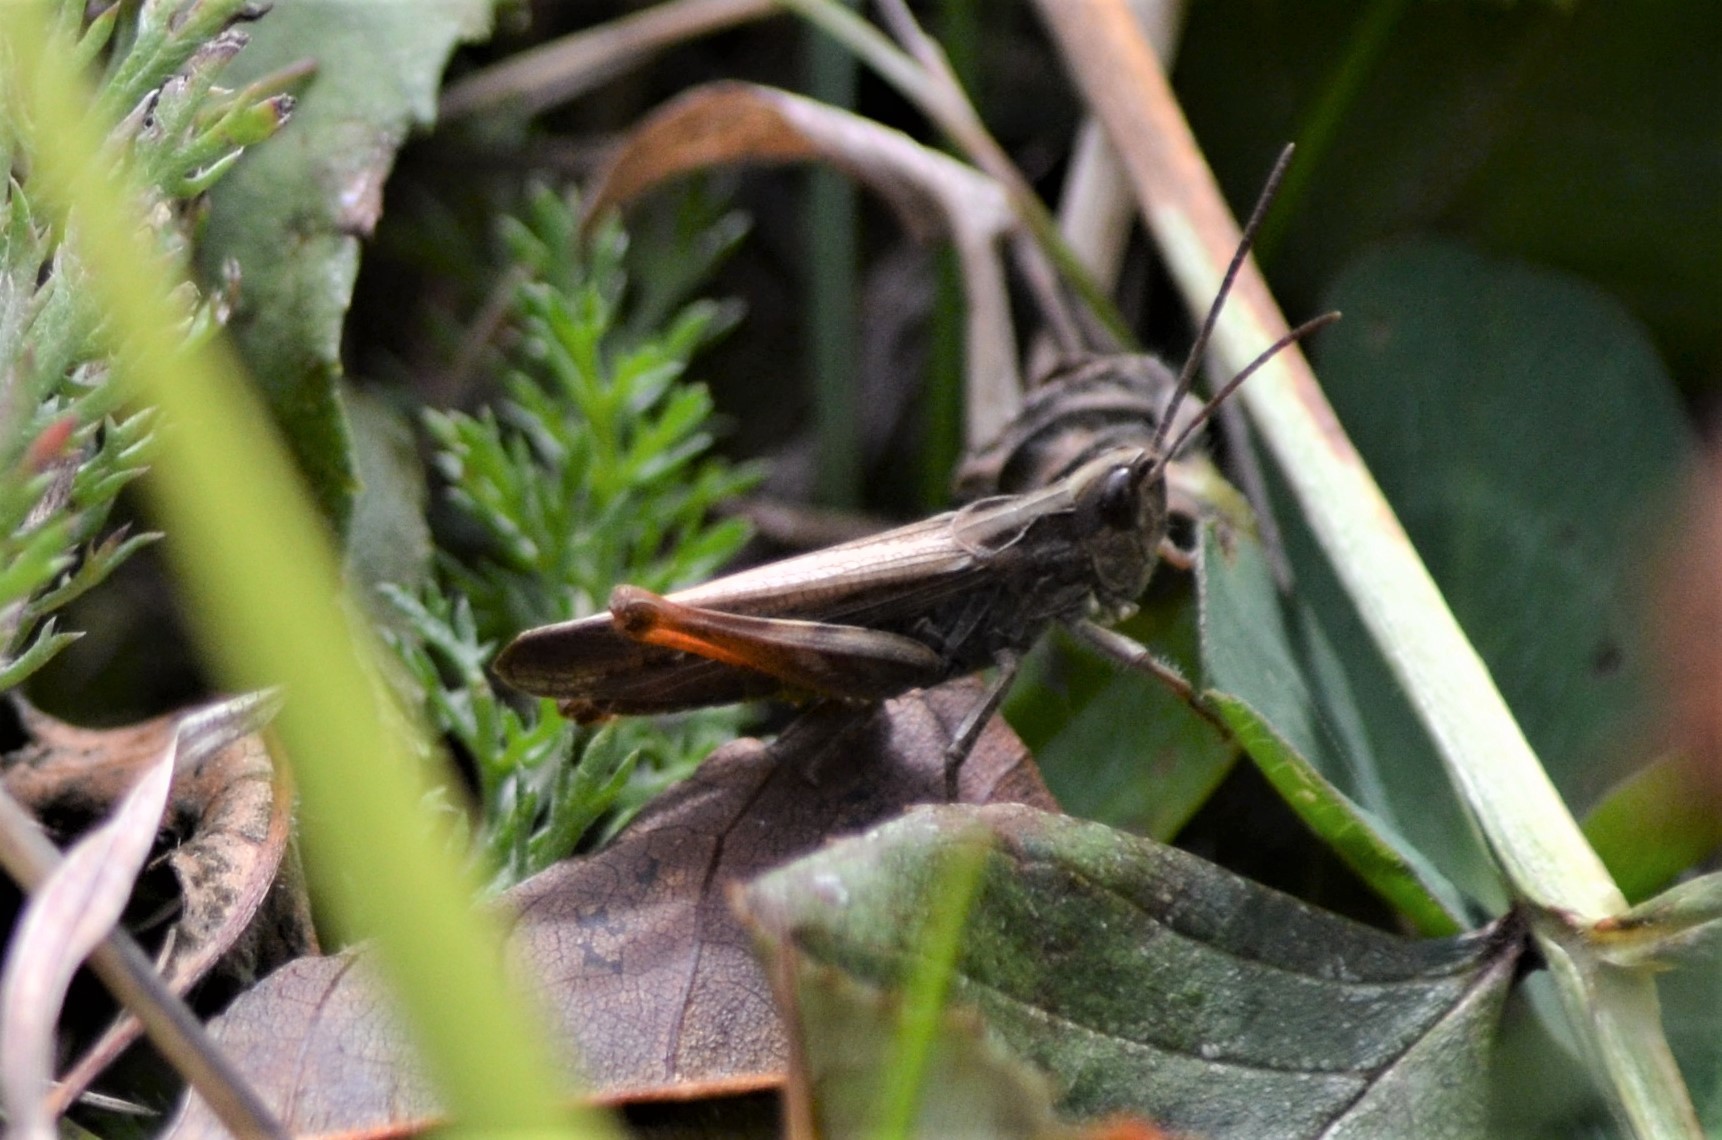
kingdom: Animalia
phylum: Arthropoda
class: Insecta
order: Orthoptera
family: Acrididae
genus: Chorthippus
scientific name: Chorthippus brunneus
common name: Field grasshopper
